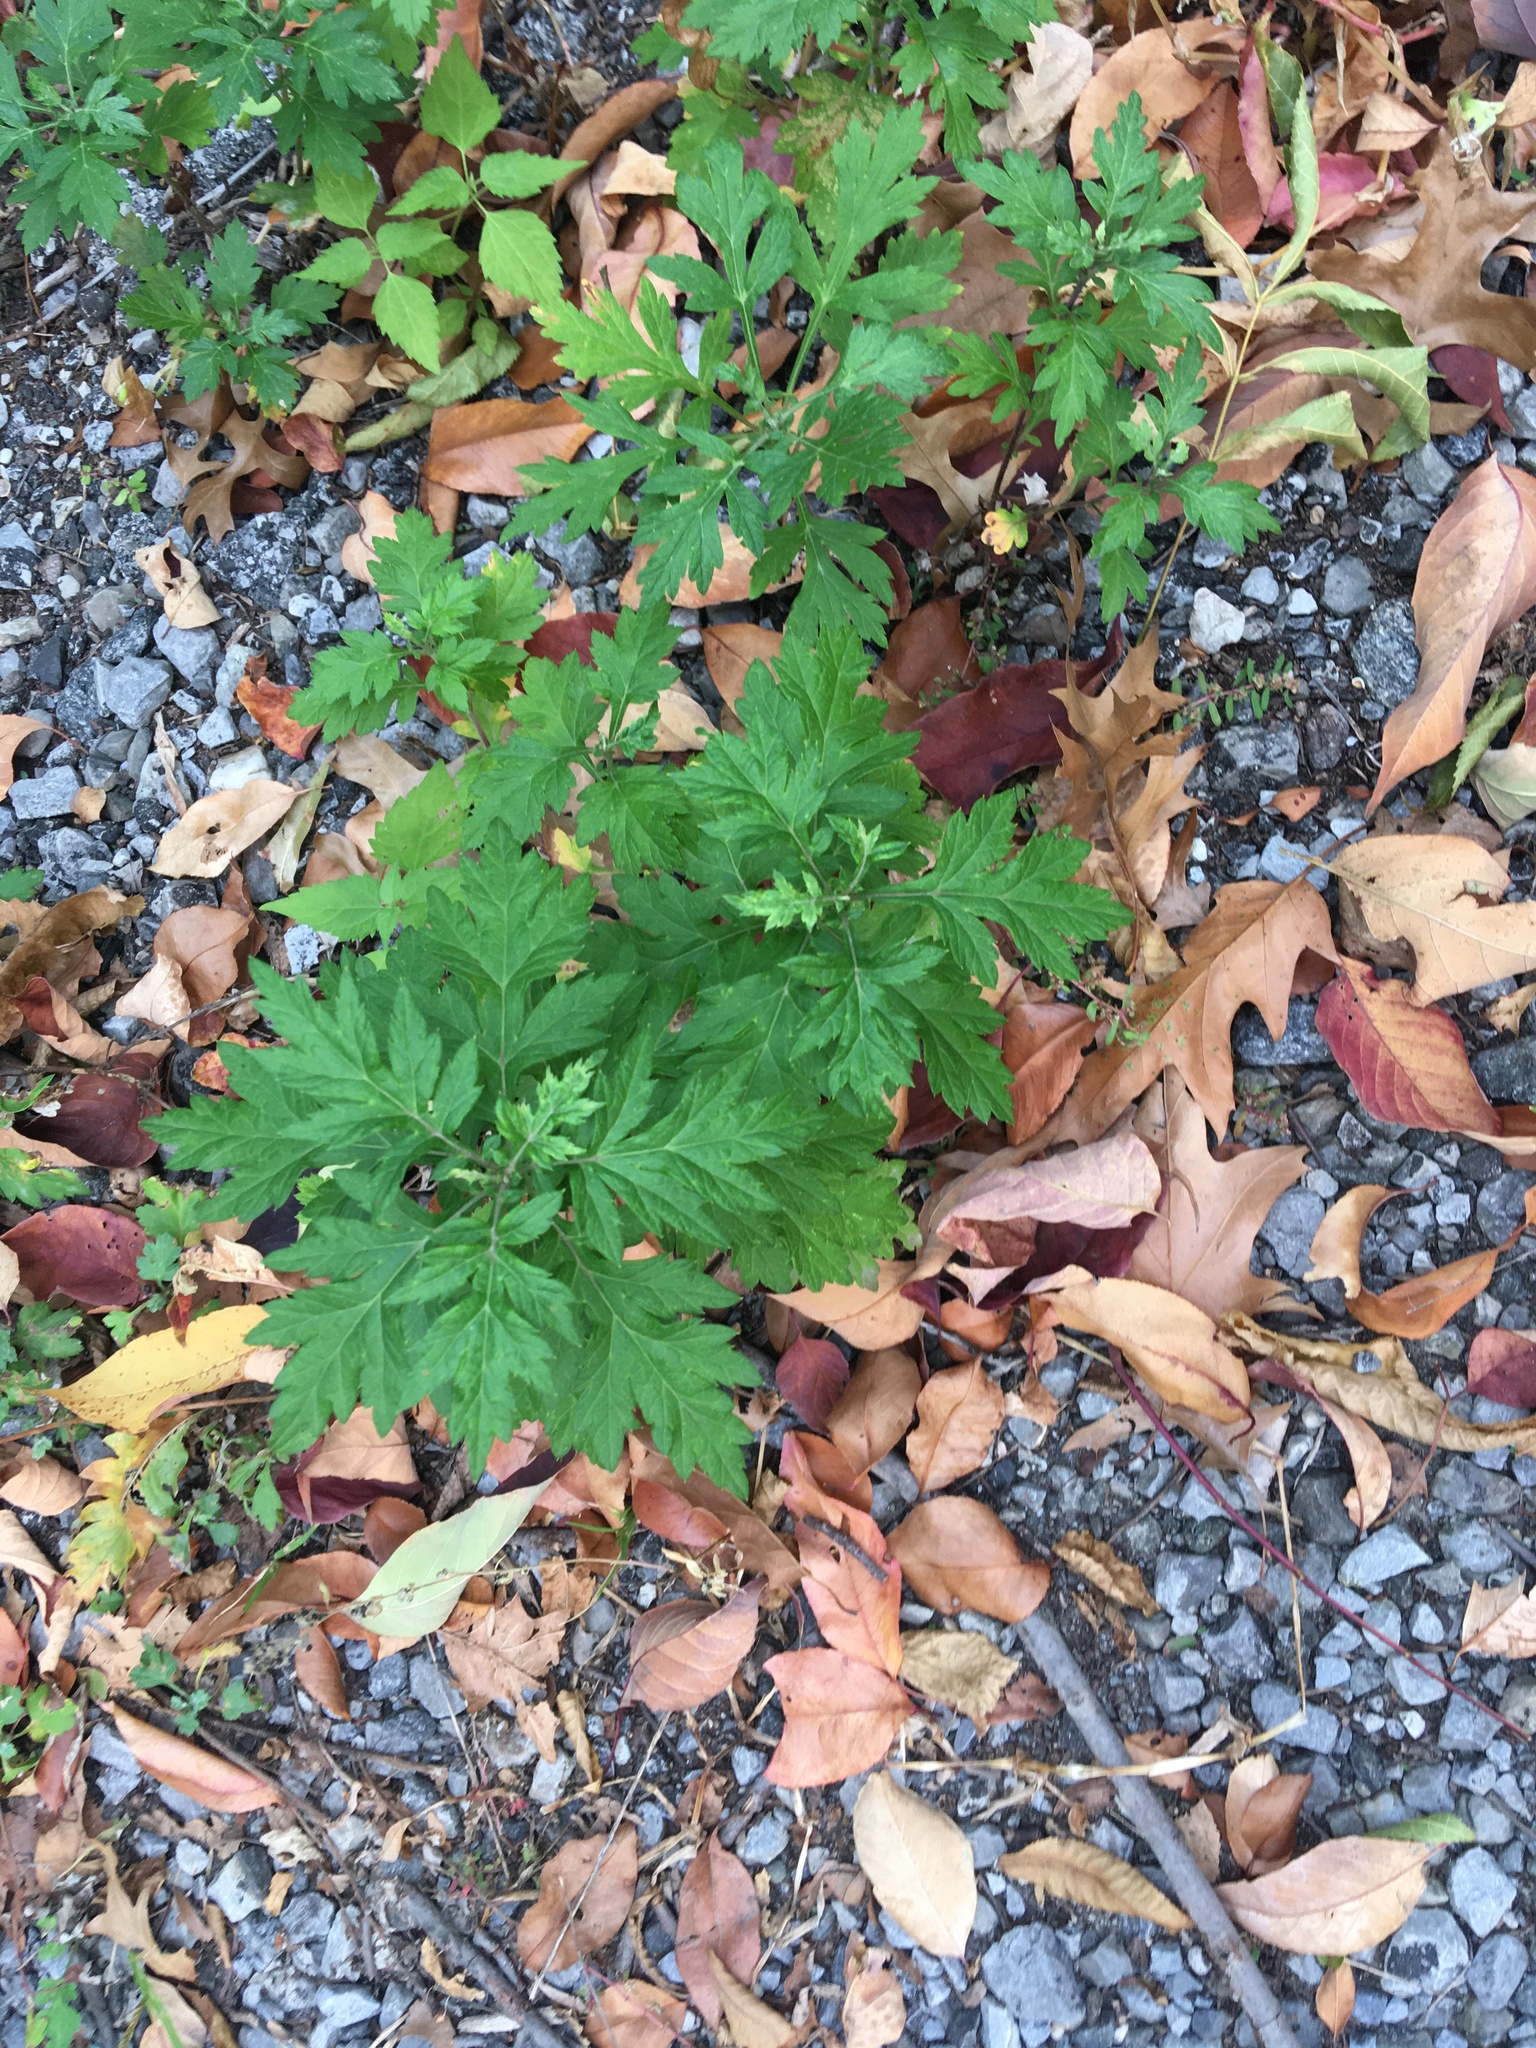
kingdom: Plantae
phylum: Tracheophyta
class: Magnoliopsida
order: Asterales
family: Asteraceae
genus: Artemisia
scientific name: Artemisia vulgaris
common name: Mugwort
